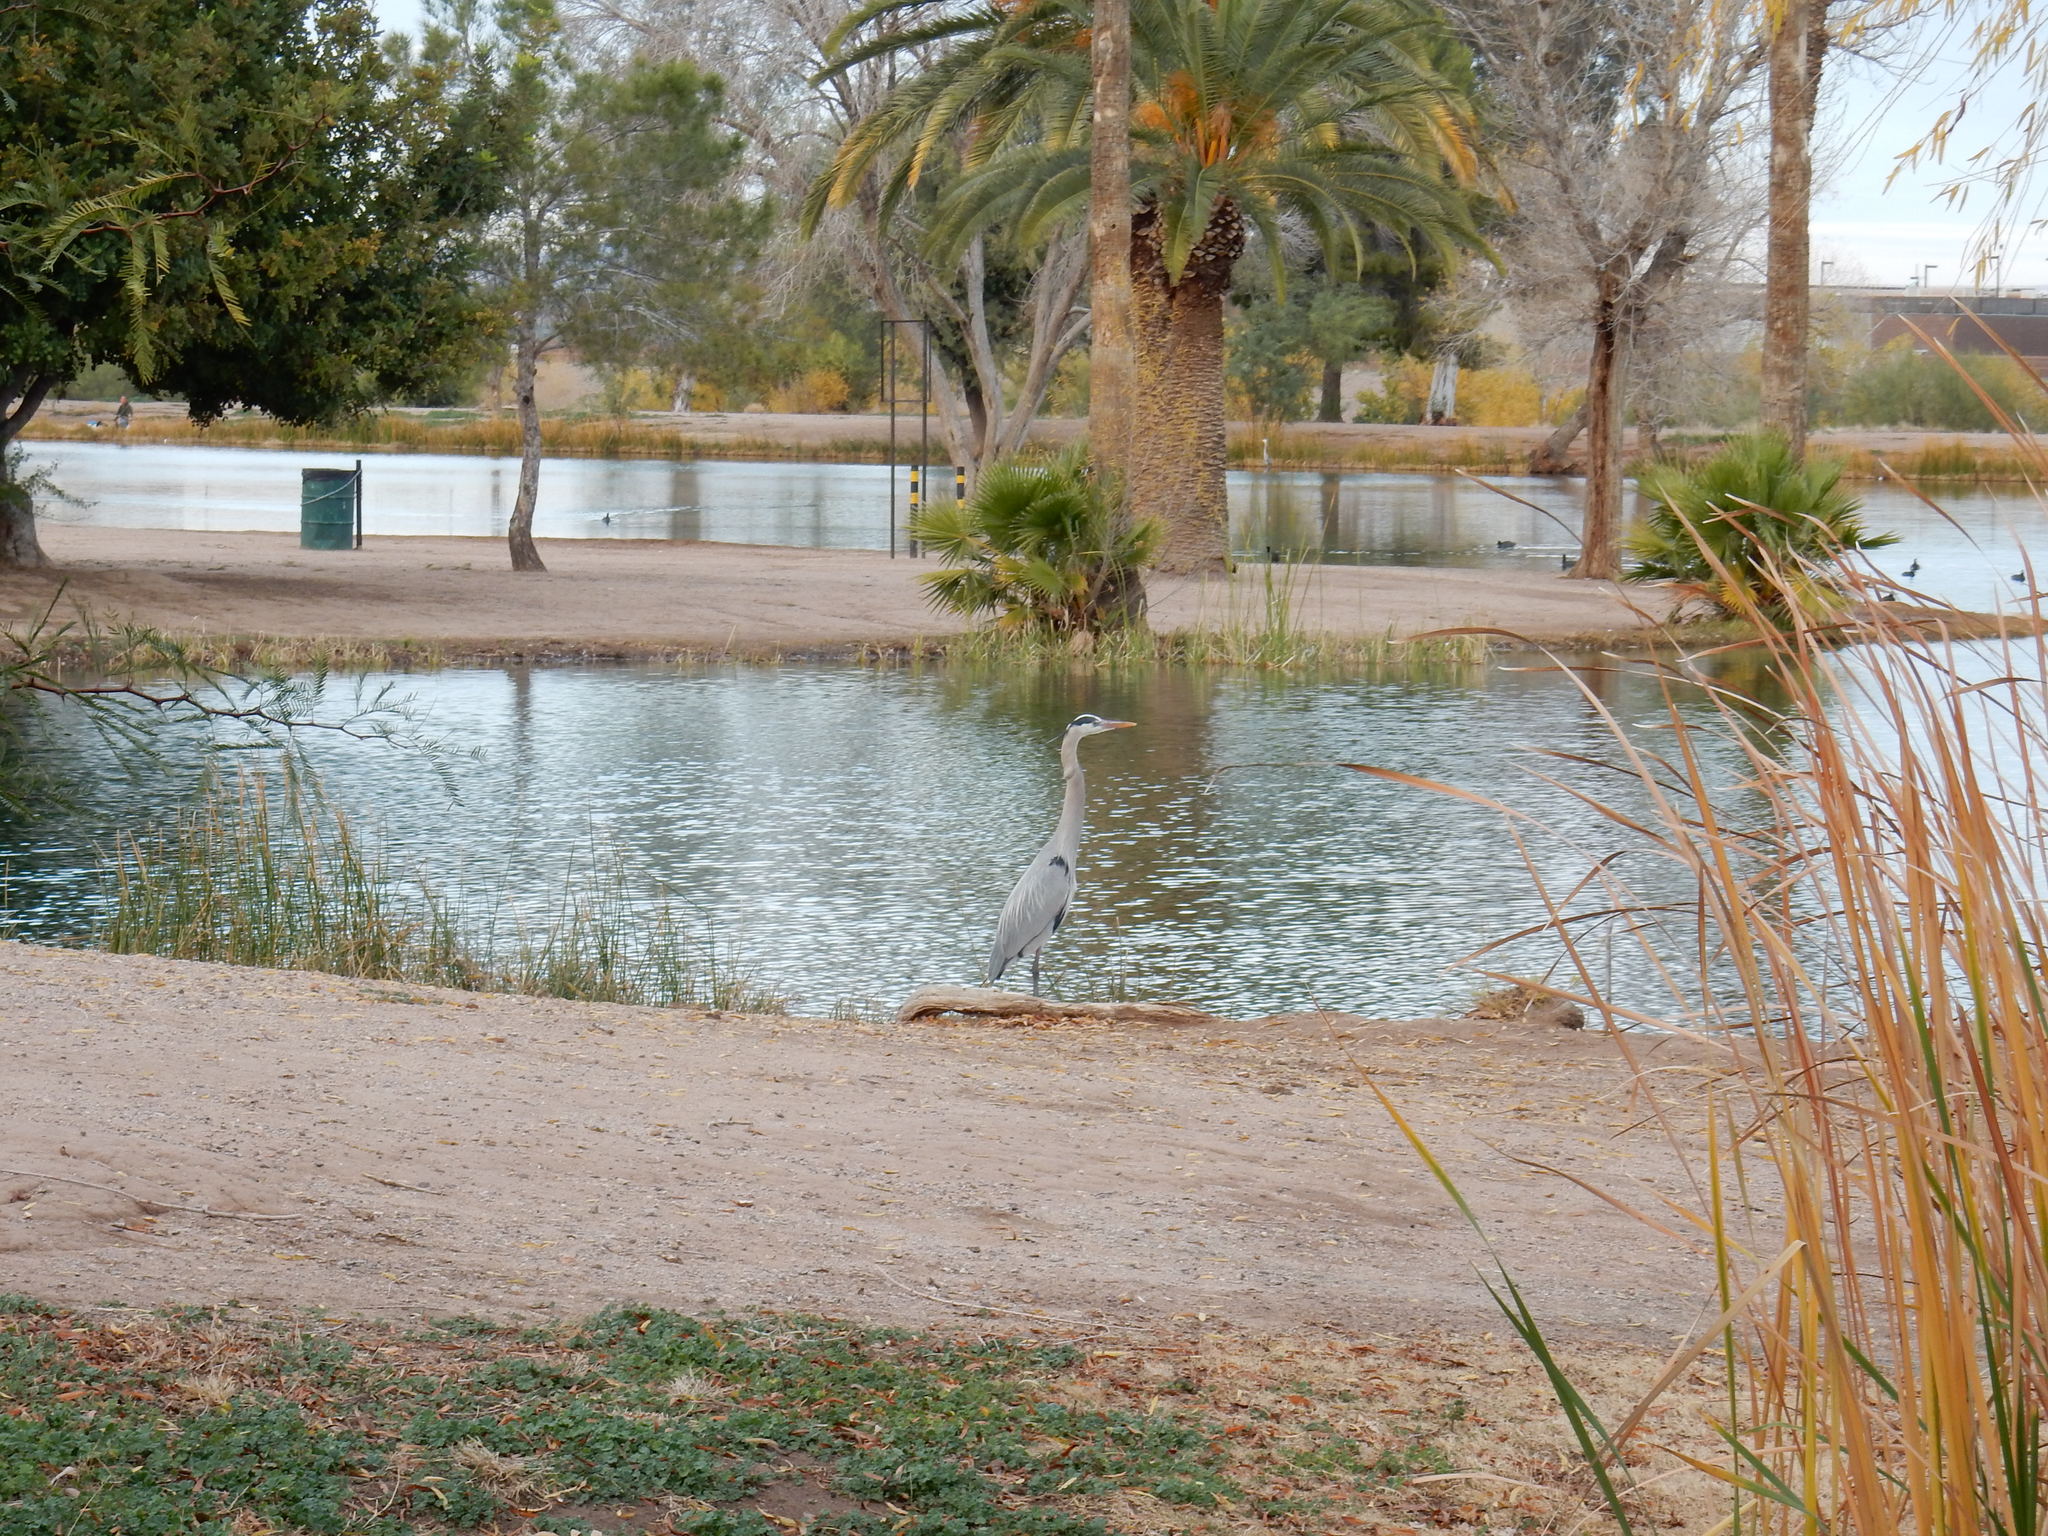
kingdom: Animalia
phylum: Chordata
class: Aves
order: Pelecaniformes
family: Ardeidae
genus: Ardea
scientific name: Ardea herodias
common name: Great blue heron
